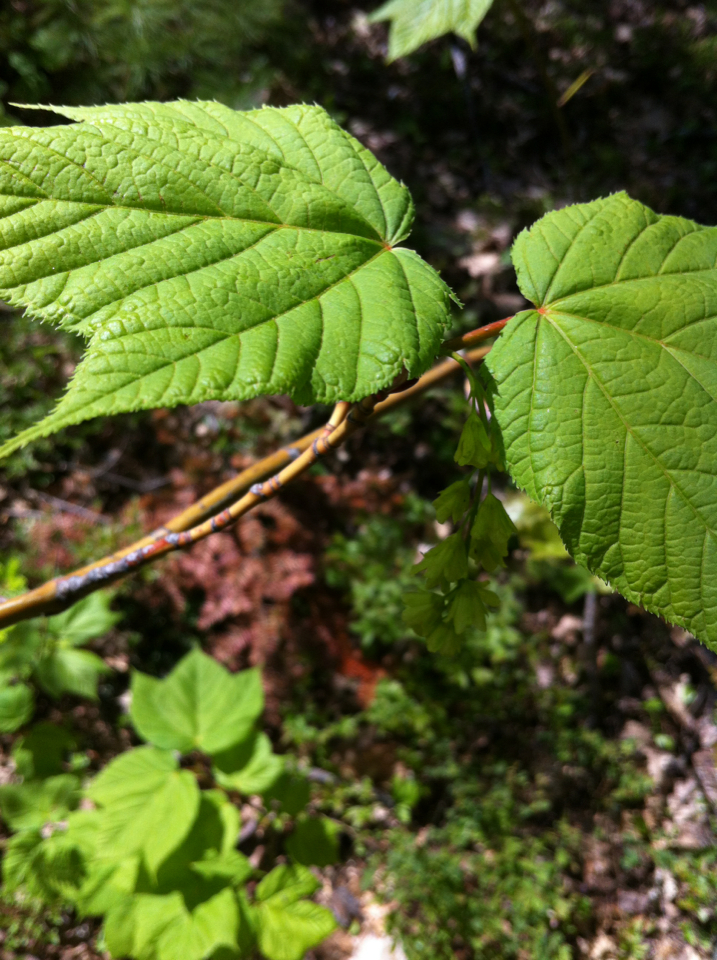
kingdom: Plantae
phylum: Tracheophyta
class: Magnoliopsida
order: Sapindales
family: Sapindaceae
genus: Acer
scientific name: Acer pensylvanicum
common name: Moosewood
